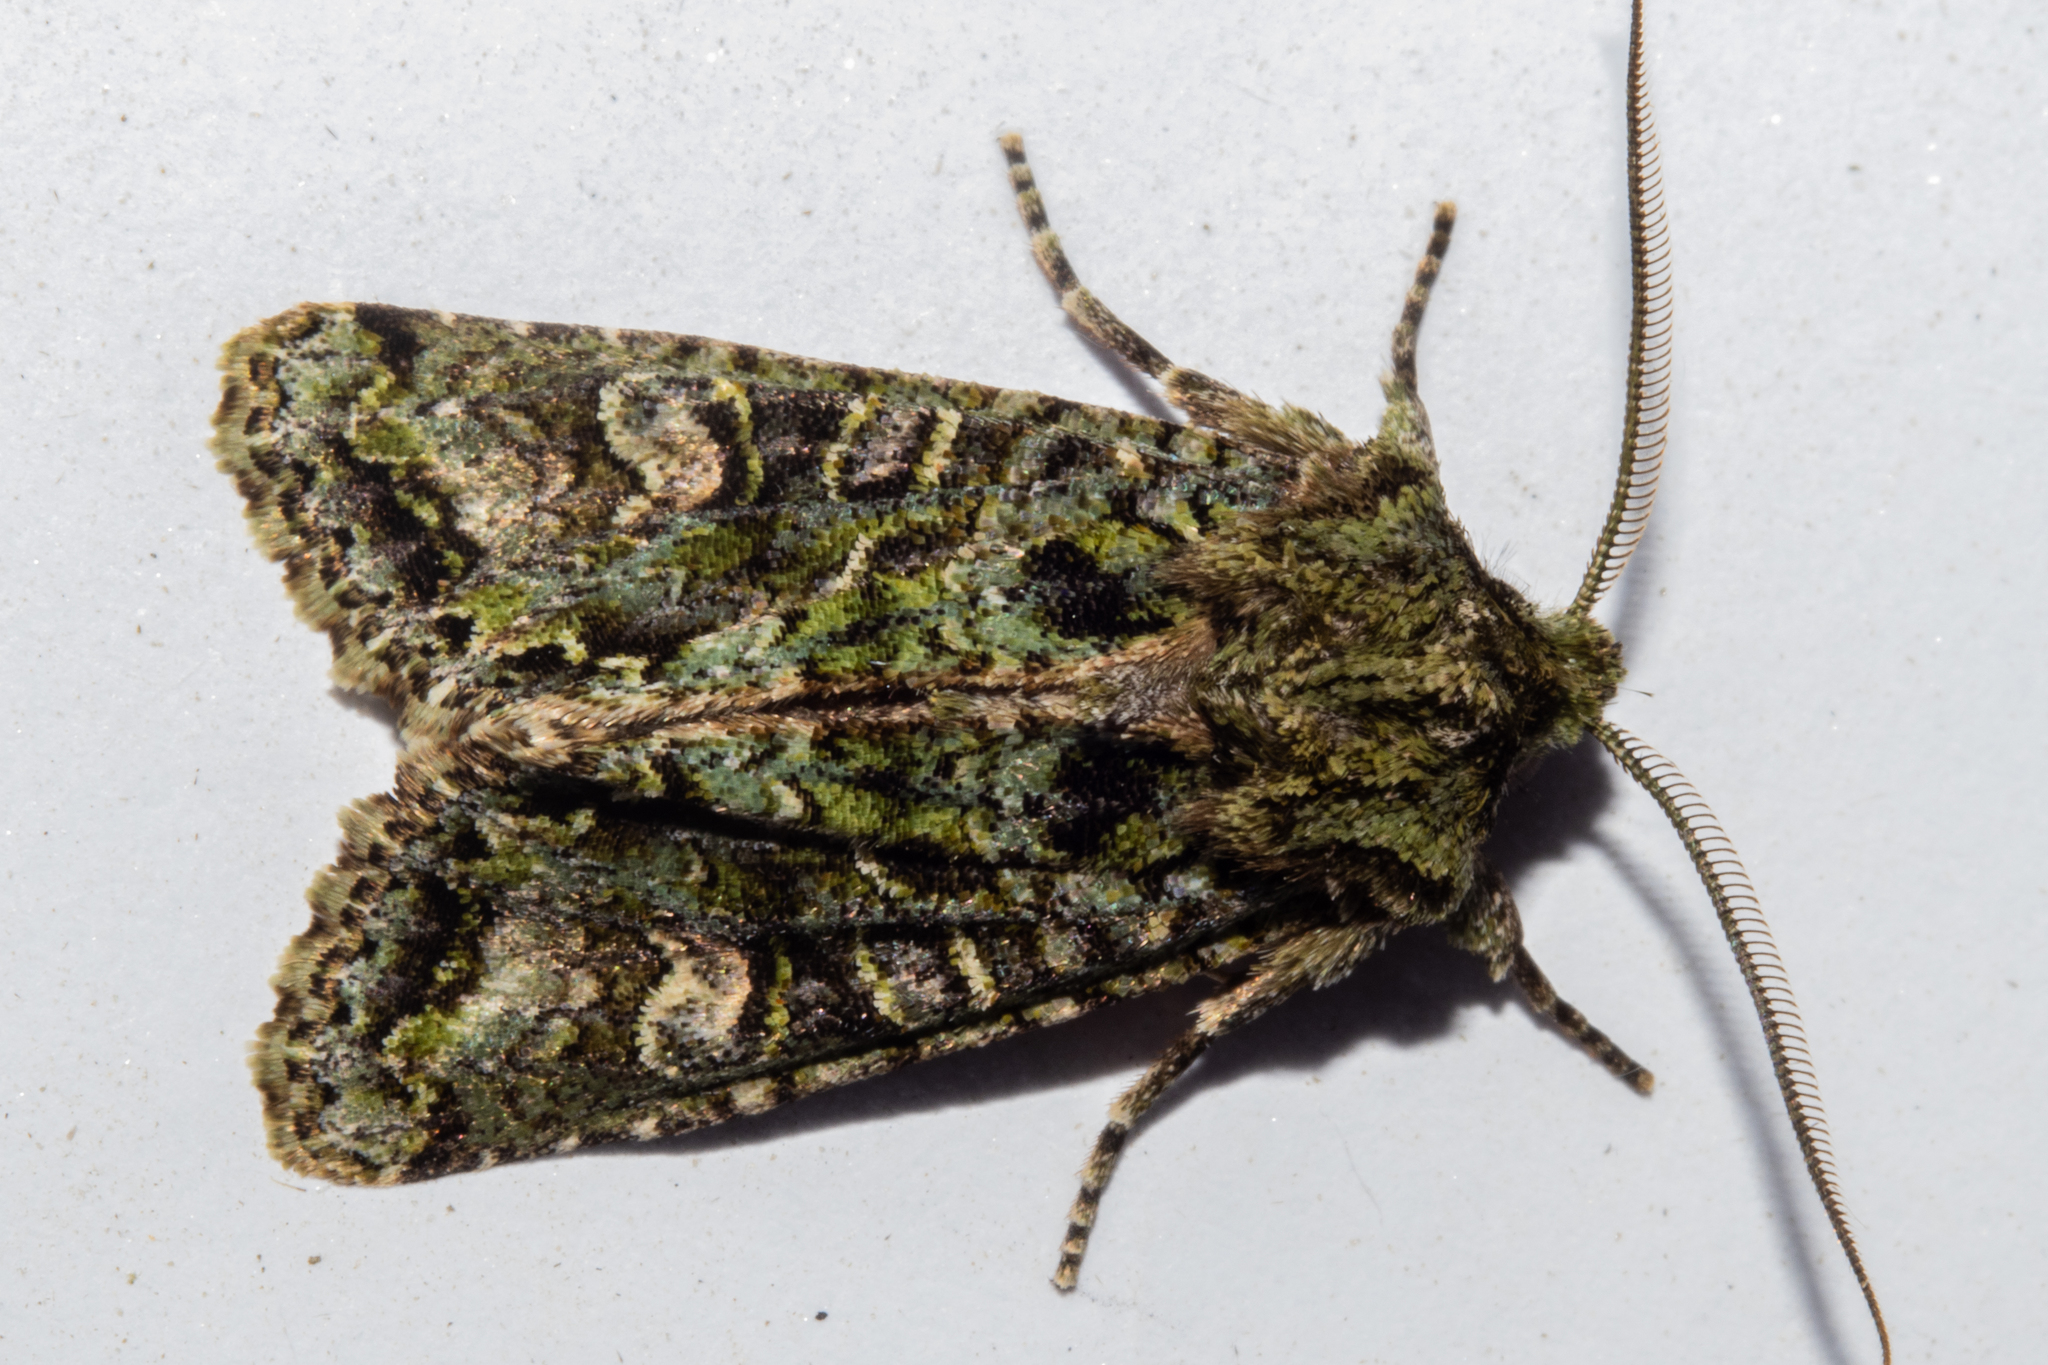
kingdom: Animalia
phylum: Arthropoda
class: Insecta
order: Lepidoptera
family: Noctuidae
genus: Ichneutica
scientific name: Ichneutica
